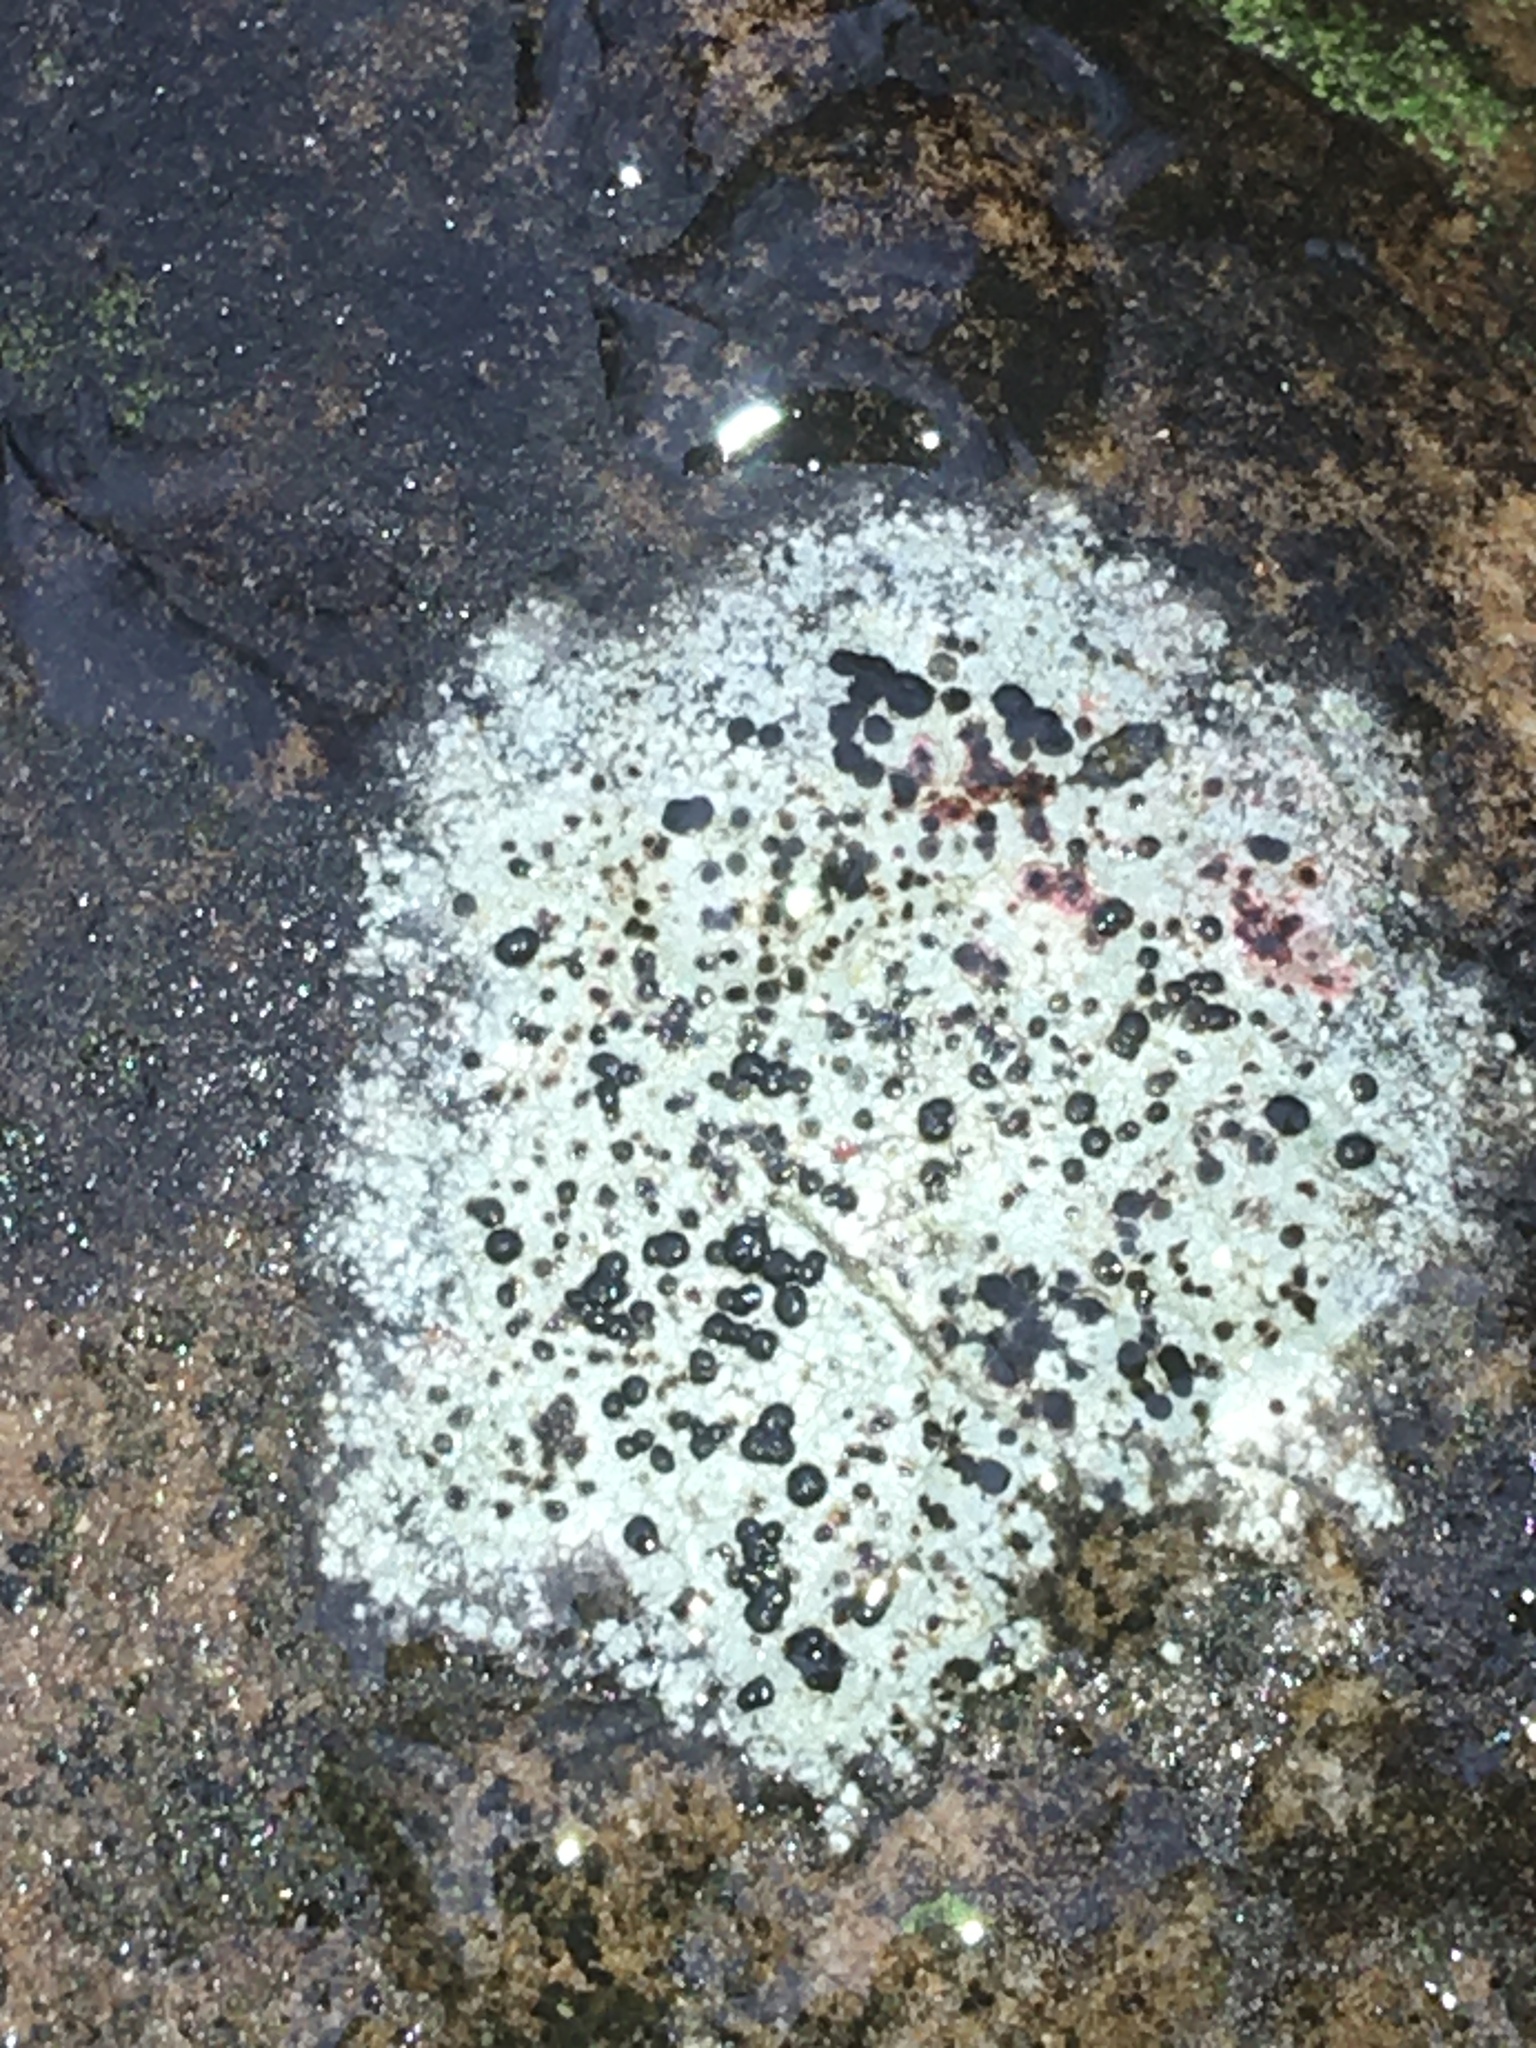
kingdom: Fungi
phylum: Ascomycota
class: Lecanoromycetes
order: Lecanorales
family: Lecanoraceae
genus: Lecidella
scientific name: Lecidella carpathica
